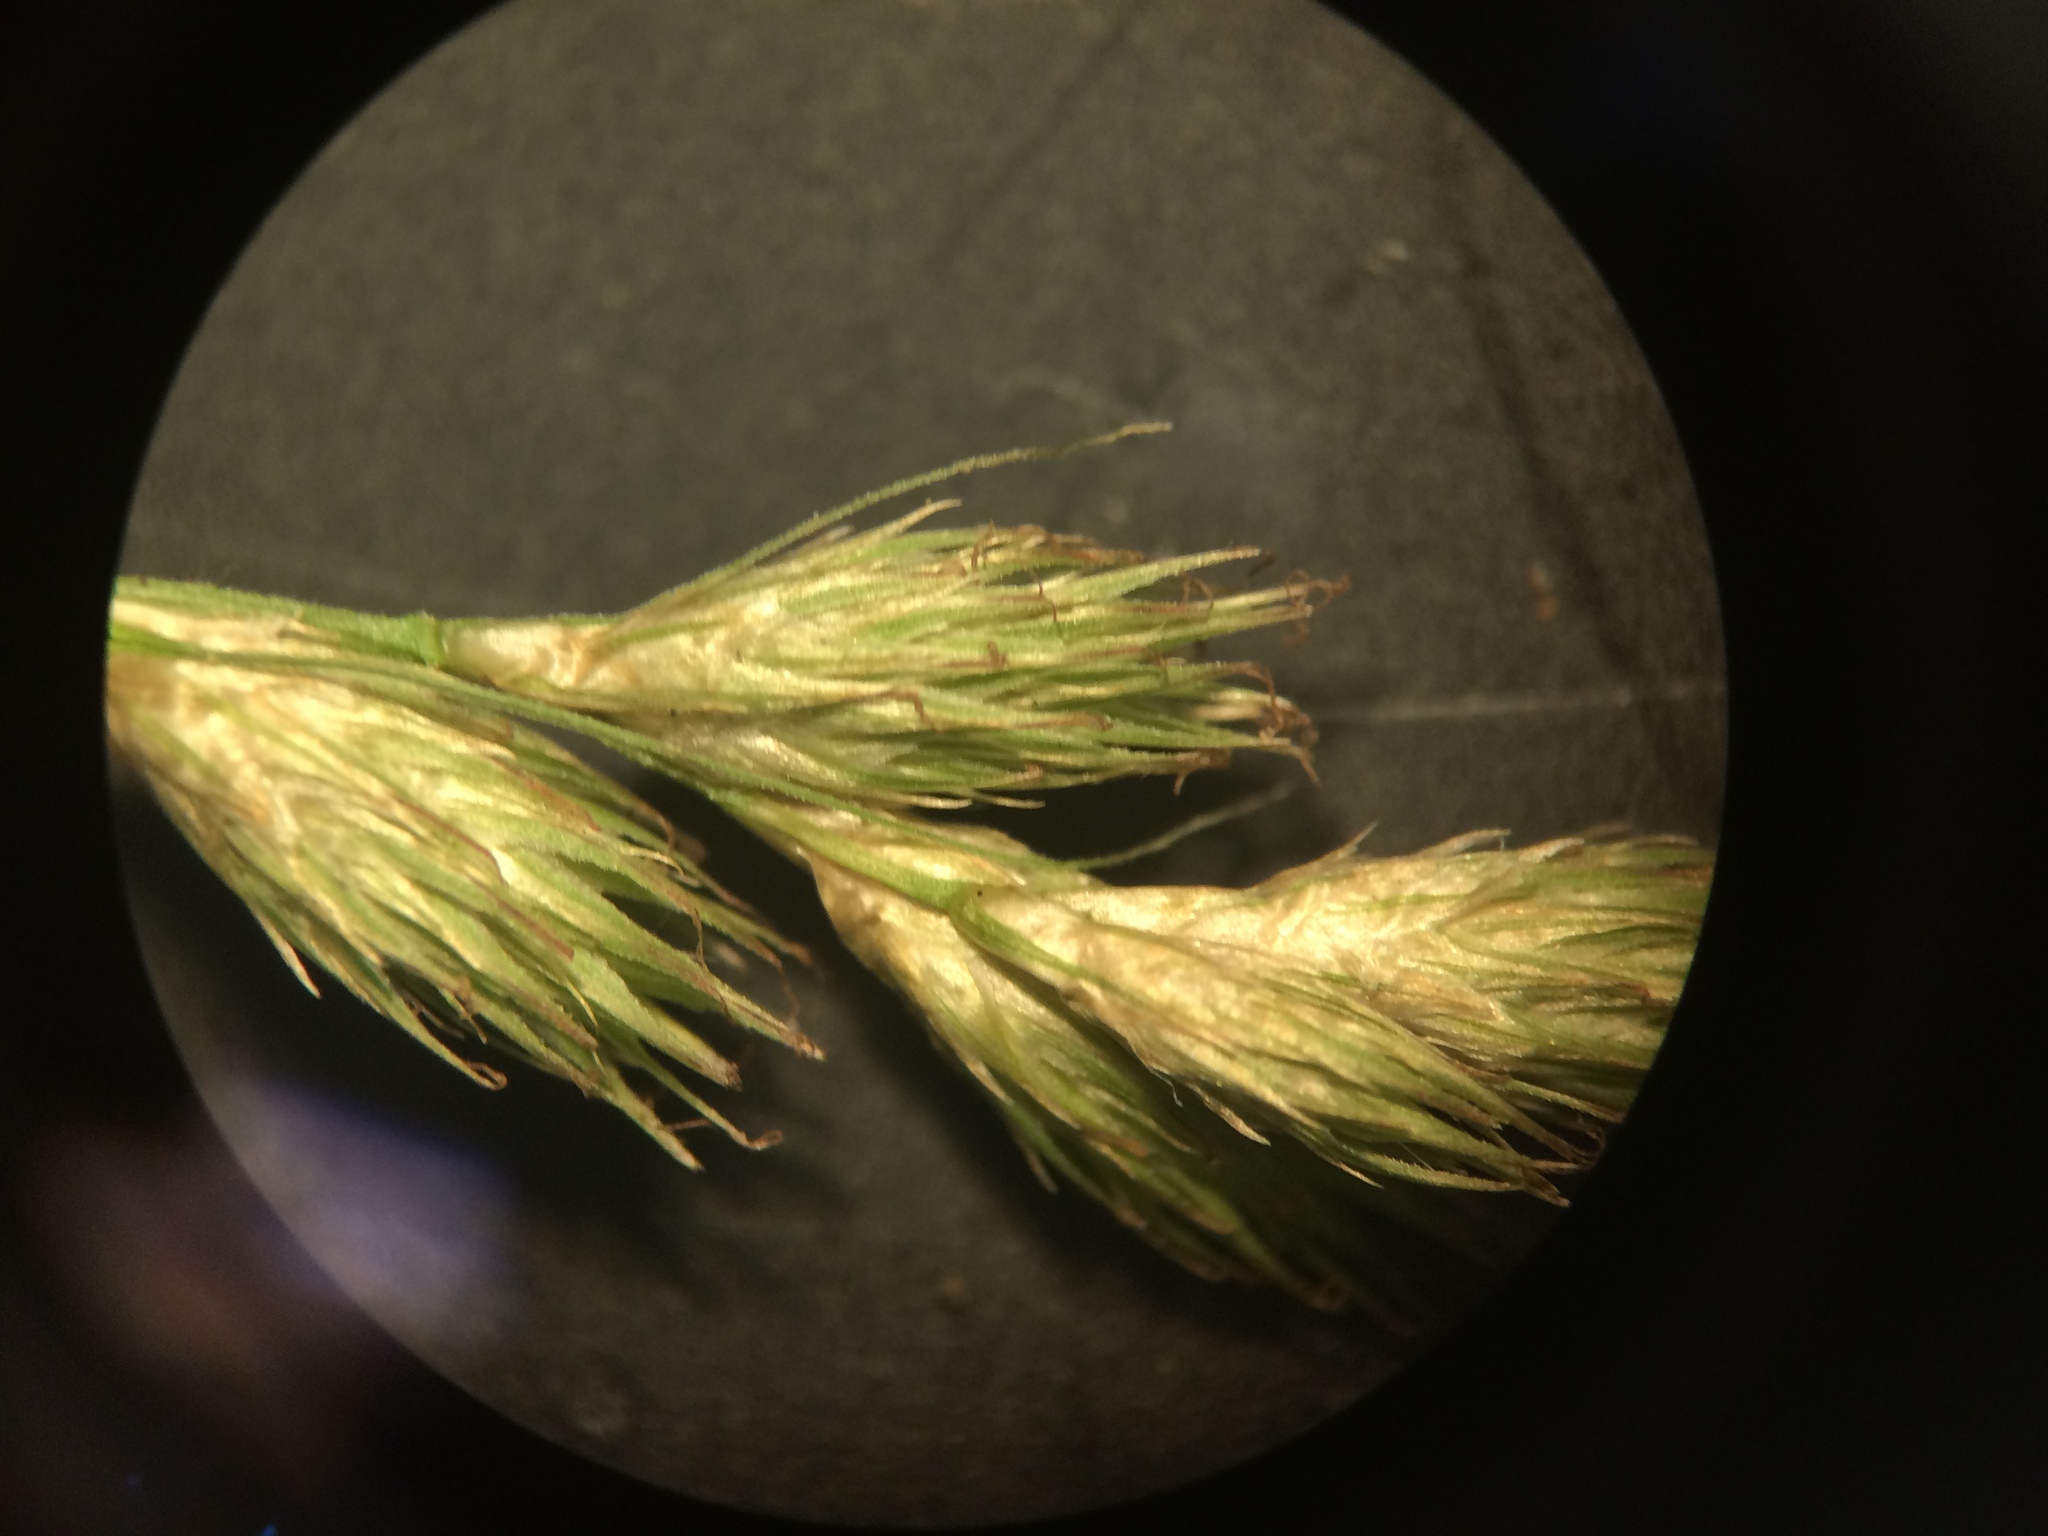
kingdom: Plantae
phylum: Tracheophyta
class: Liliopsida
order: Poales
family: Cyperaceae
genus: Carex
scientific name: Carex scoparia
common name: Broom sedge
